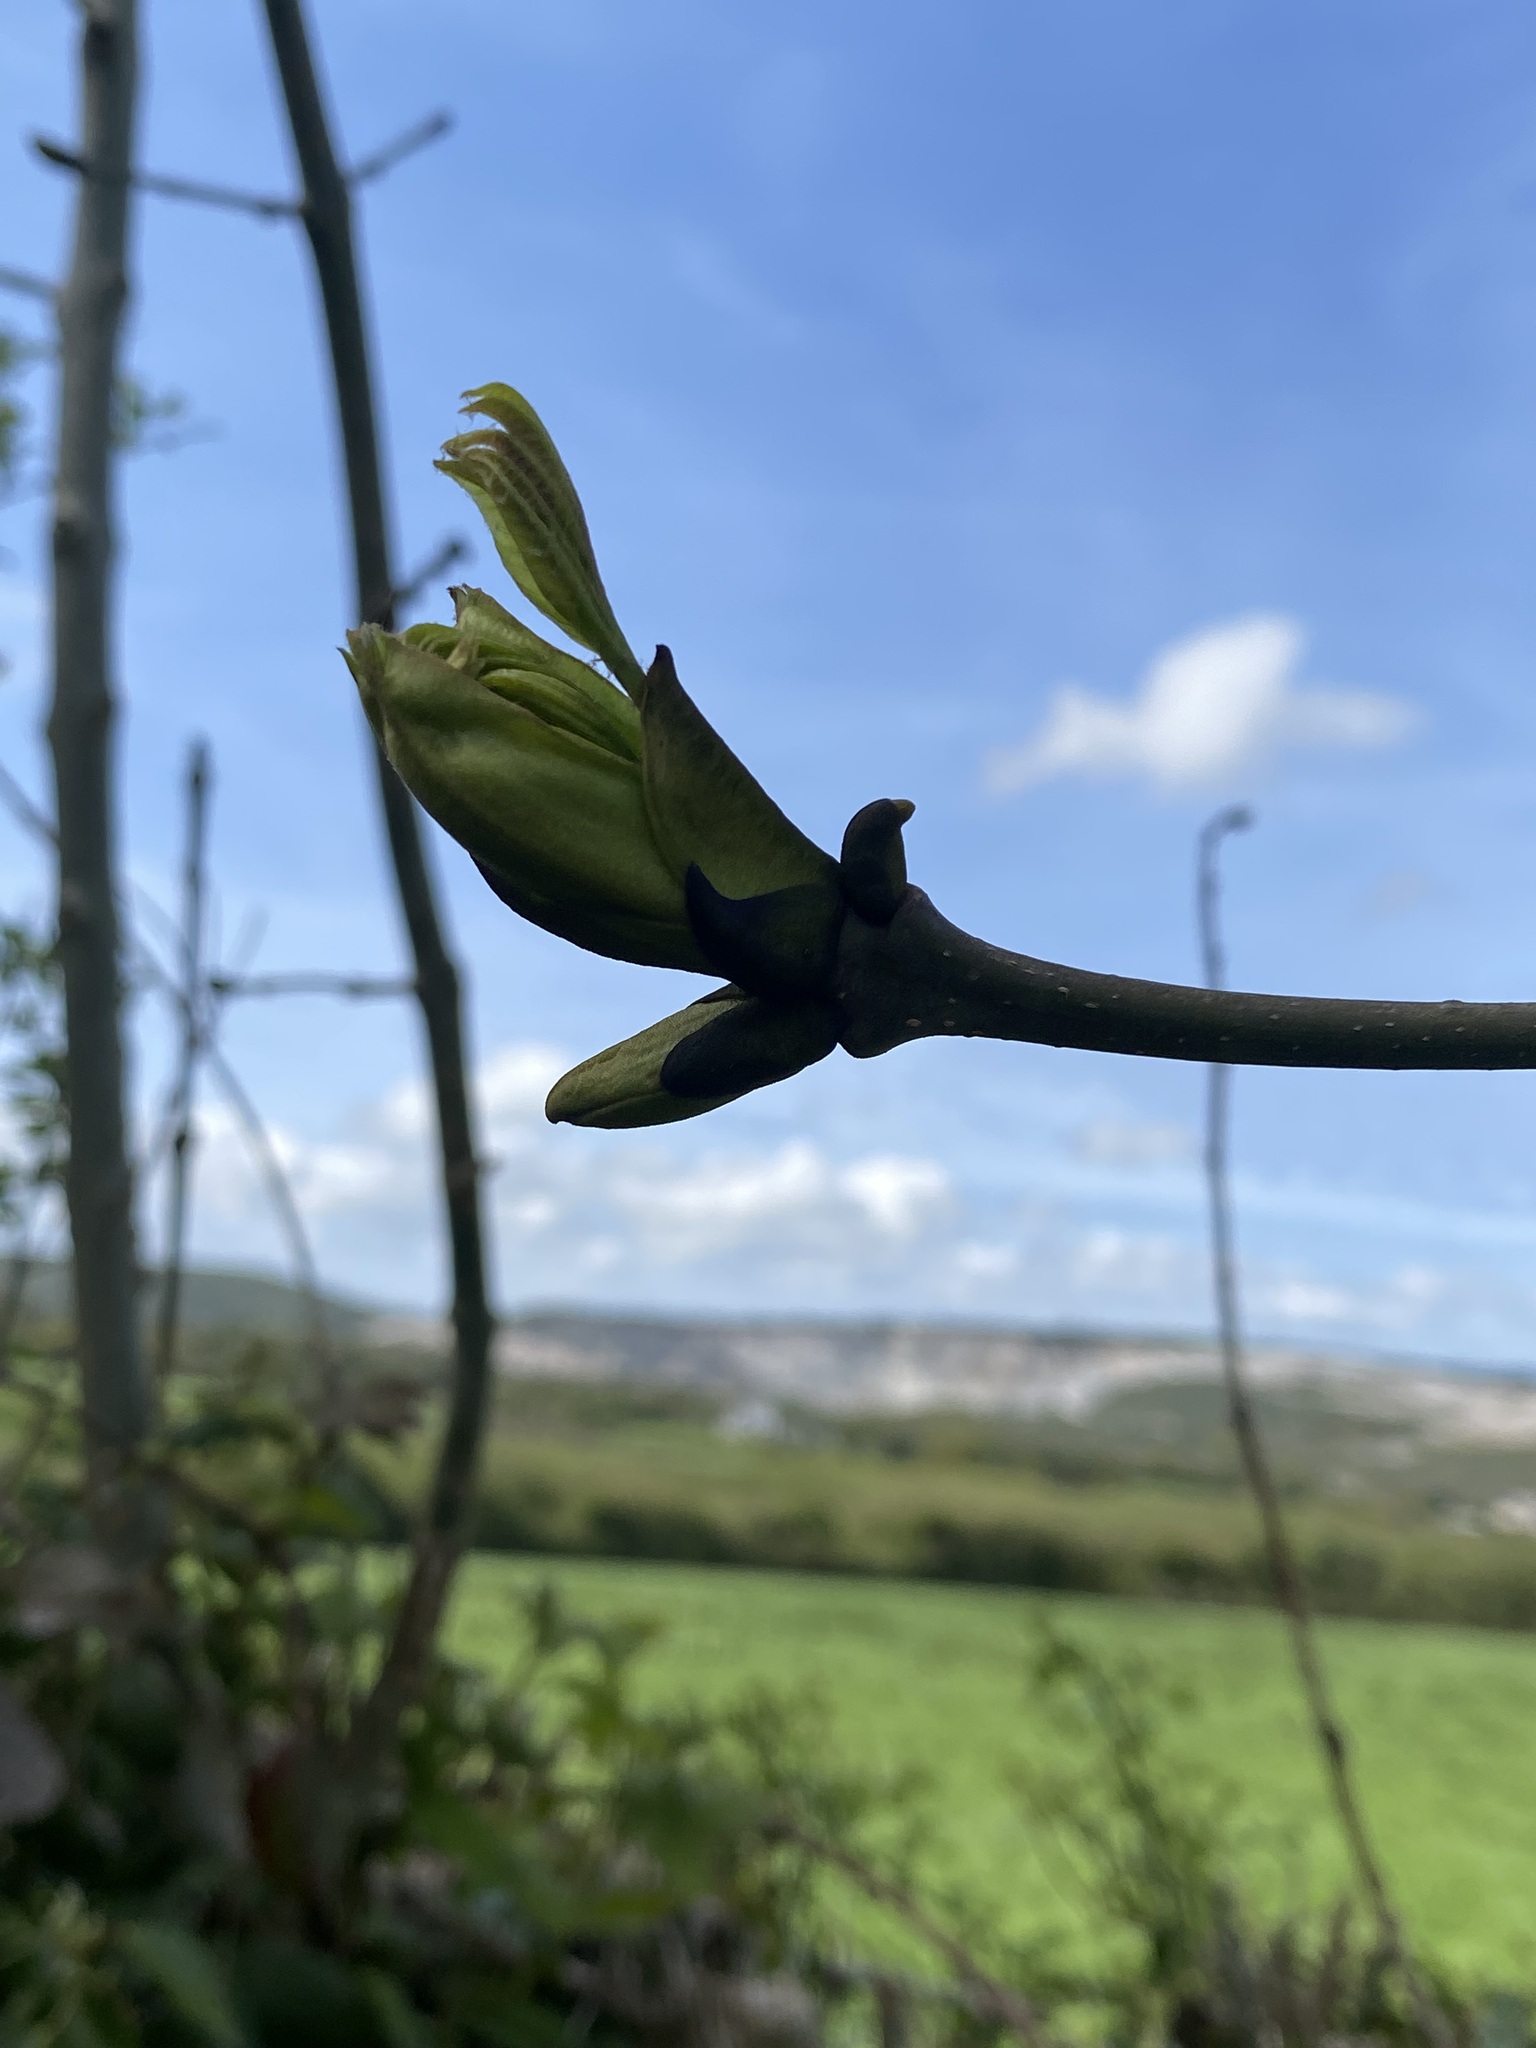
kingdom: Plantae
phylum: Tracheophyta
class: Magnoliopsida
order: Sapindales
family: Sapindaceae
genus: Acer
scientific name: Acer pseudoplatanus
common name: Sycamore
